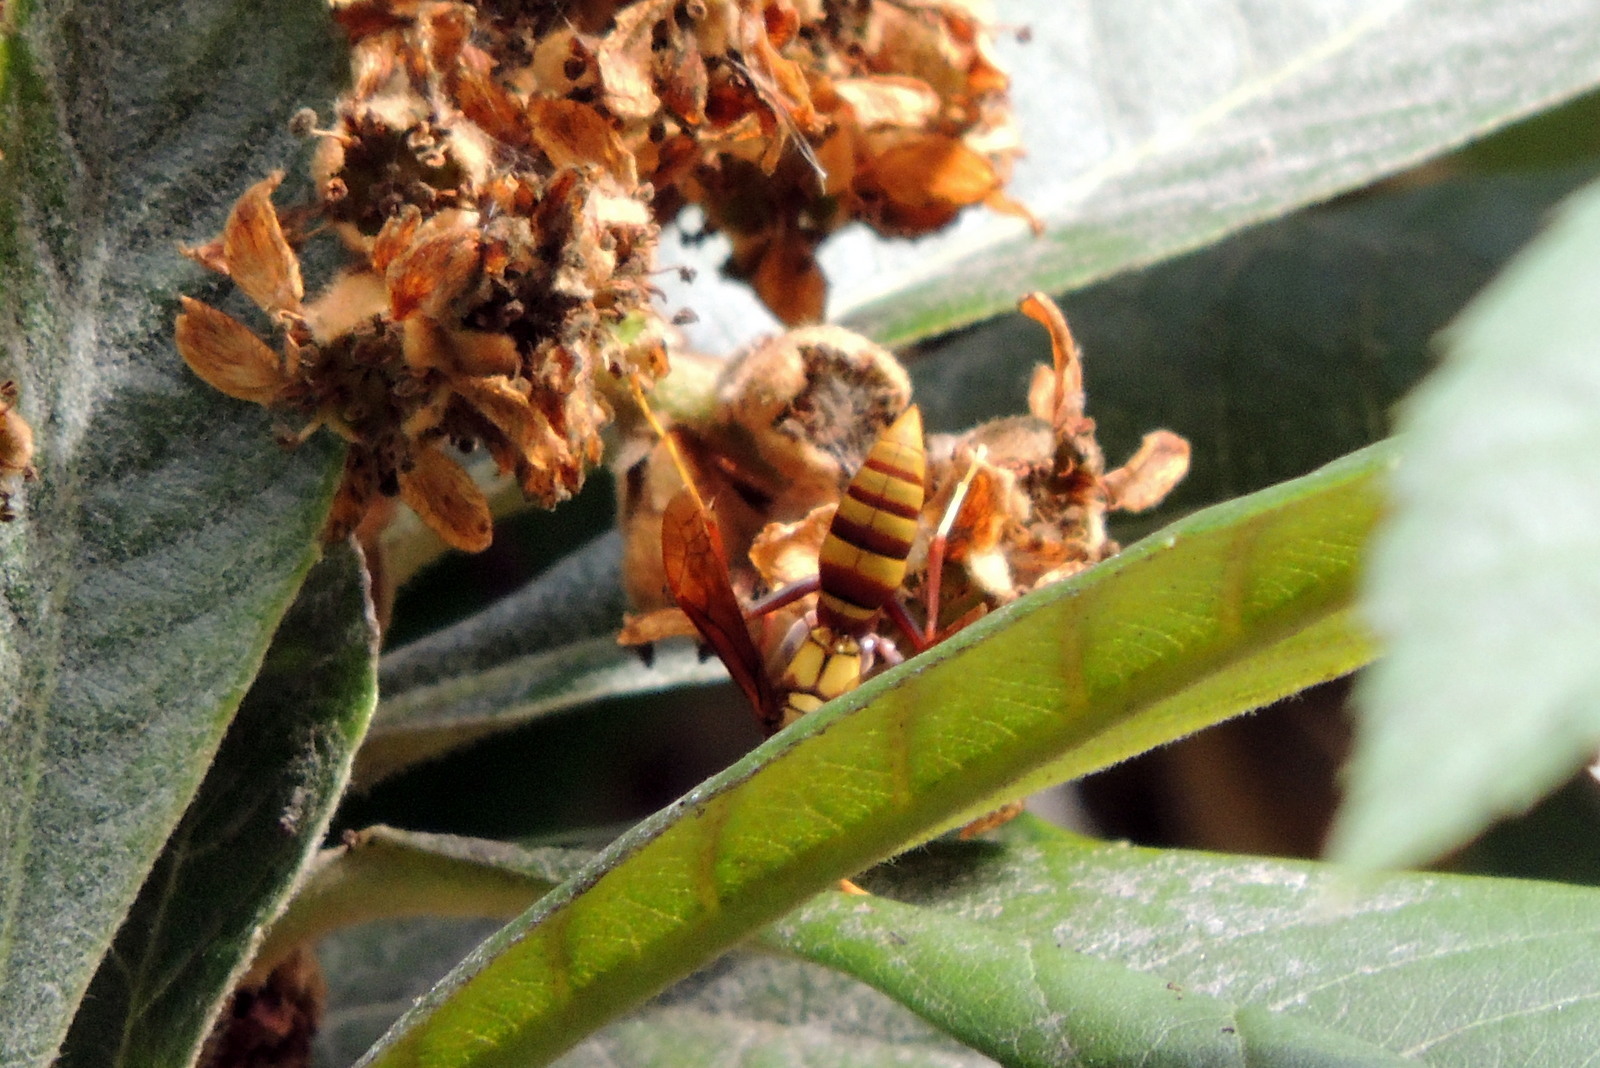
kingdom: Animalia
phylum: Arthropoda
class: Insecta
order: Hymenoptera
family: Eumenidae
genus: Polistes
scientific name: Polistes major
